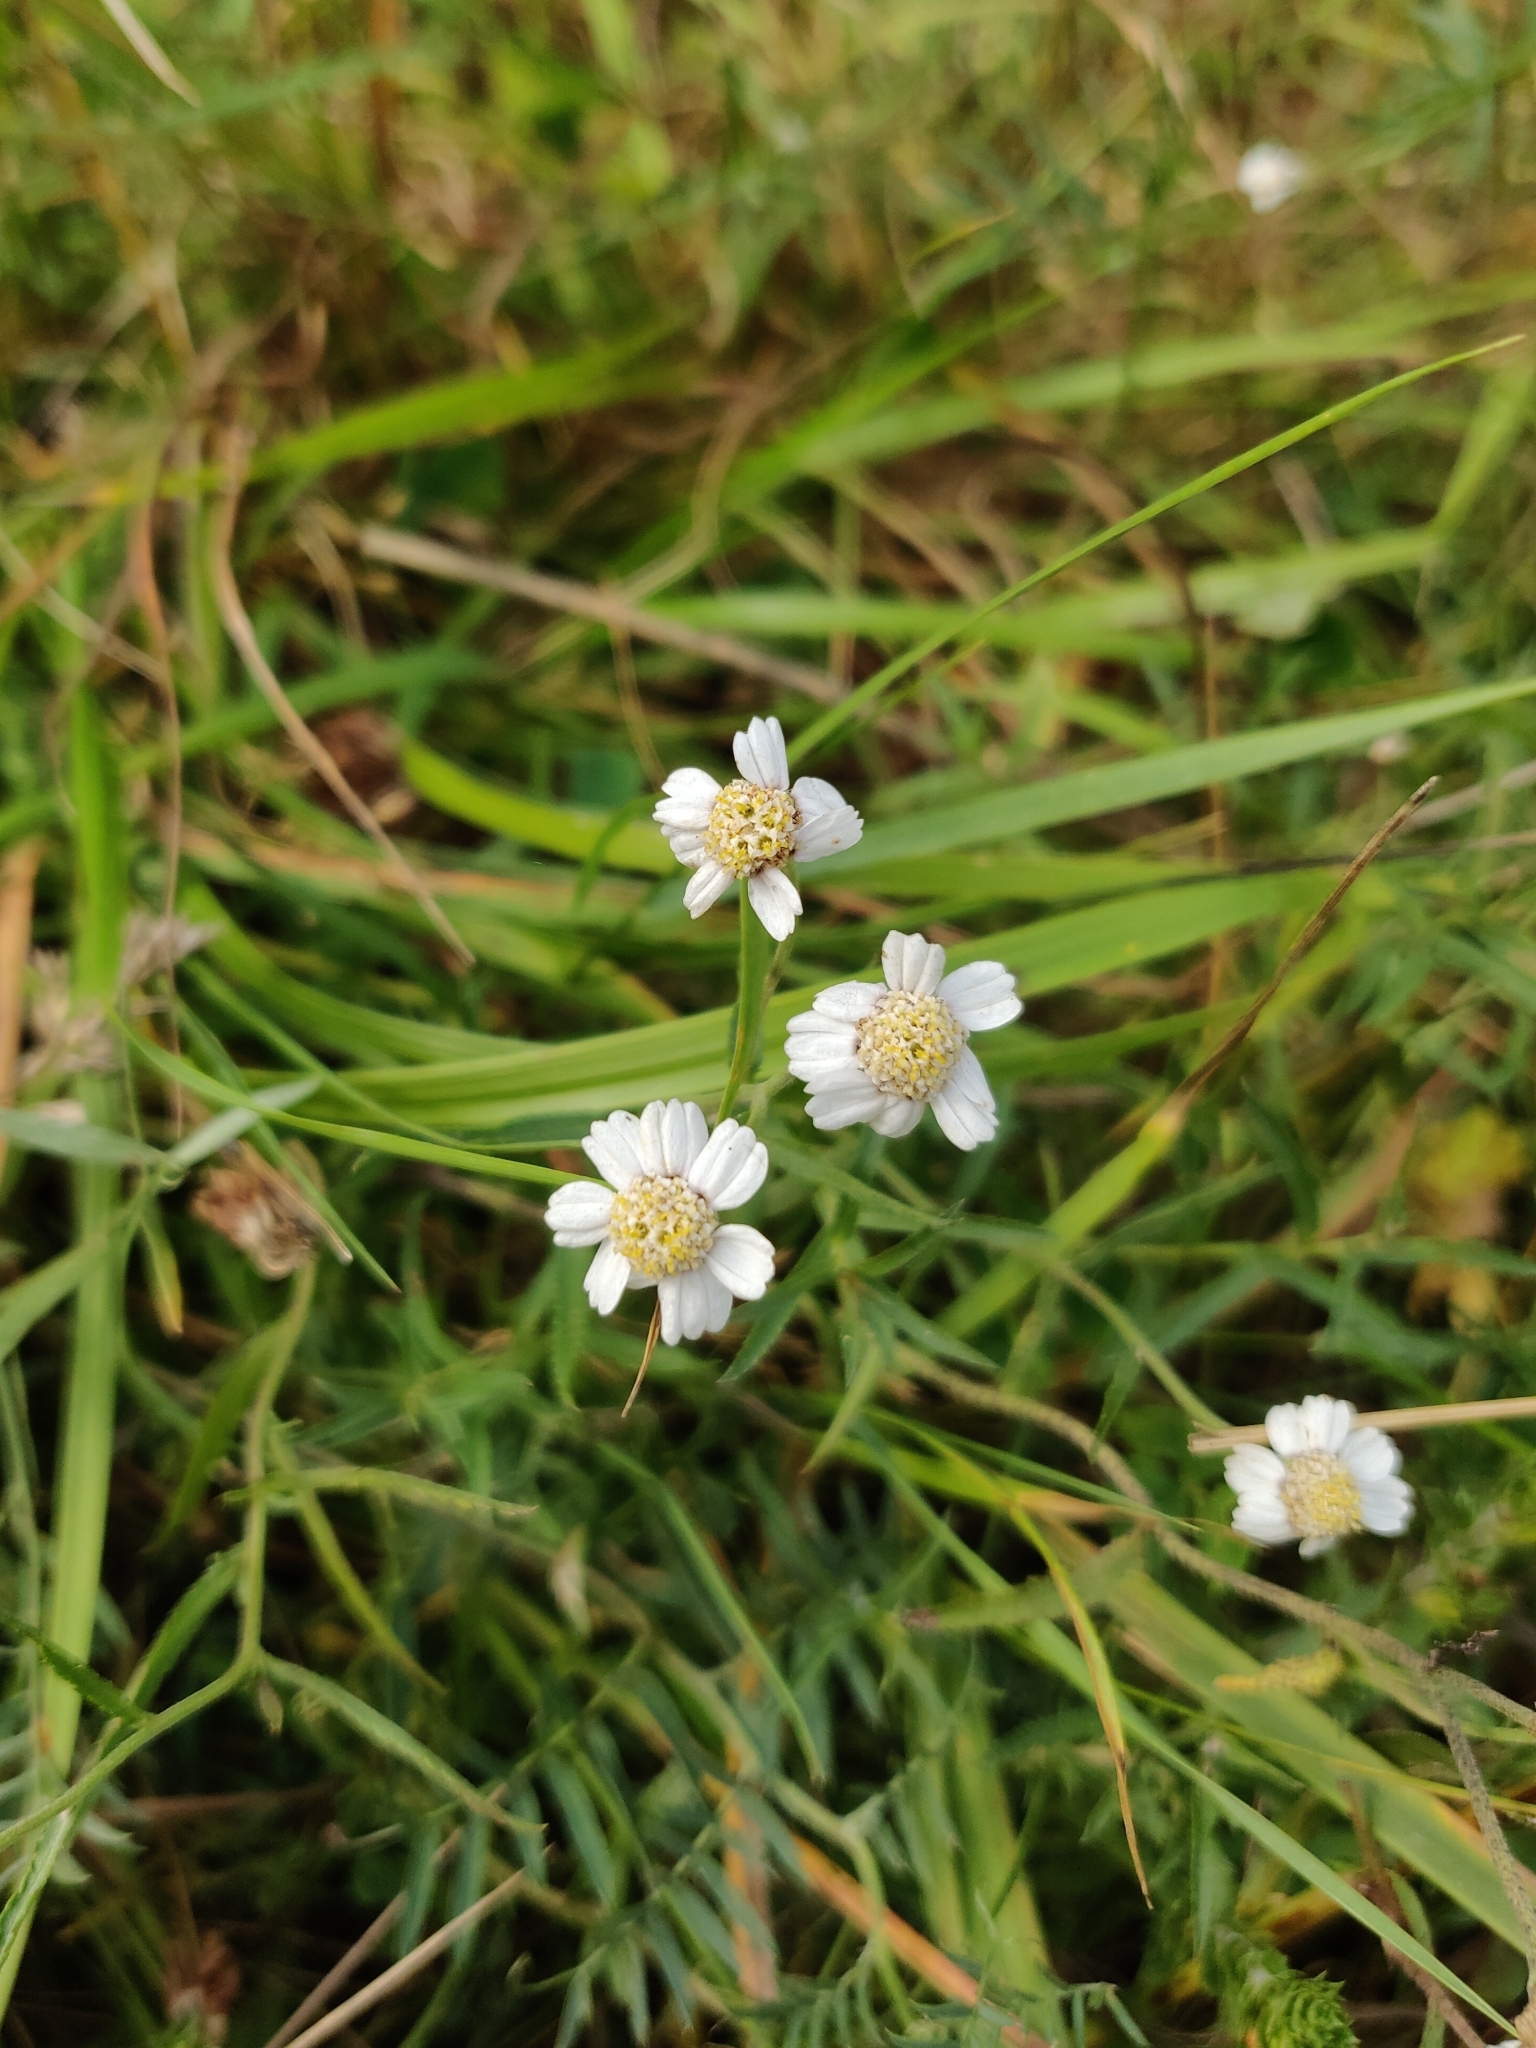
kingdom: Plantae
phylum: Tracheophyta
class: Magnoliopsida
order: Asterales
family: Asteraceae
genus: Achillea
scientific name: Achillea ptarmica
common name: Sneezeweed
